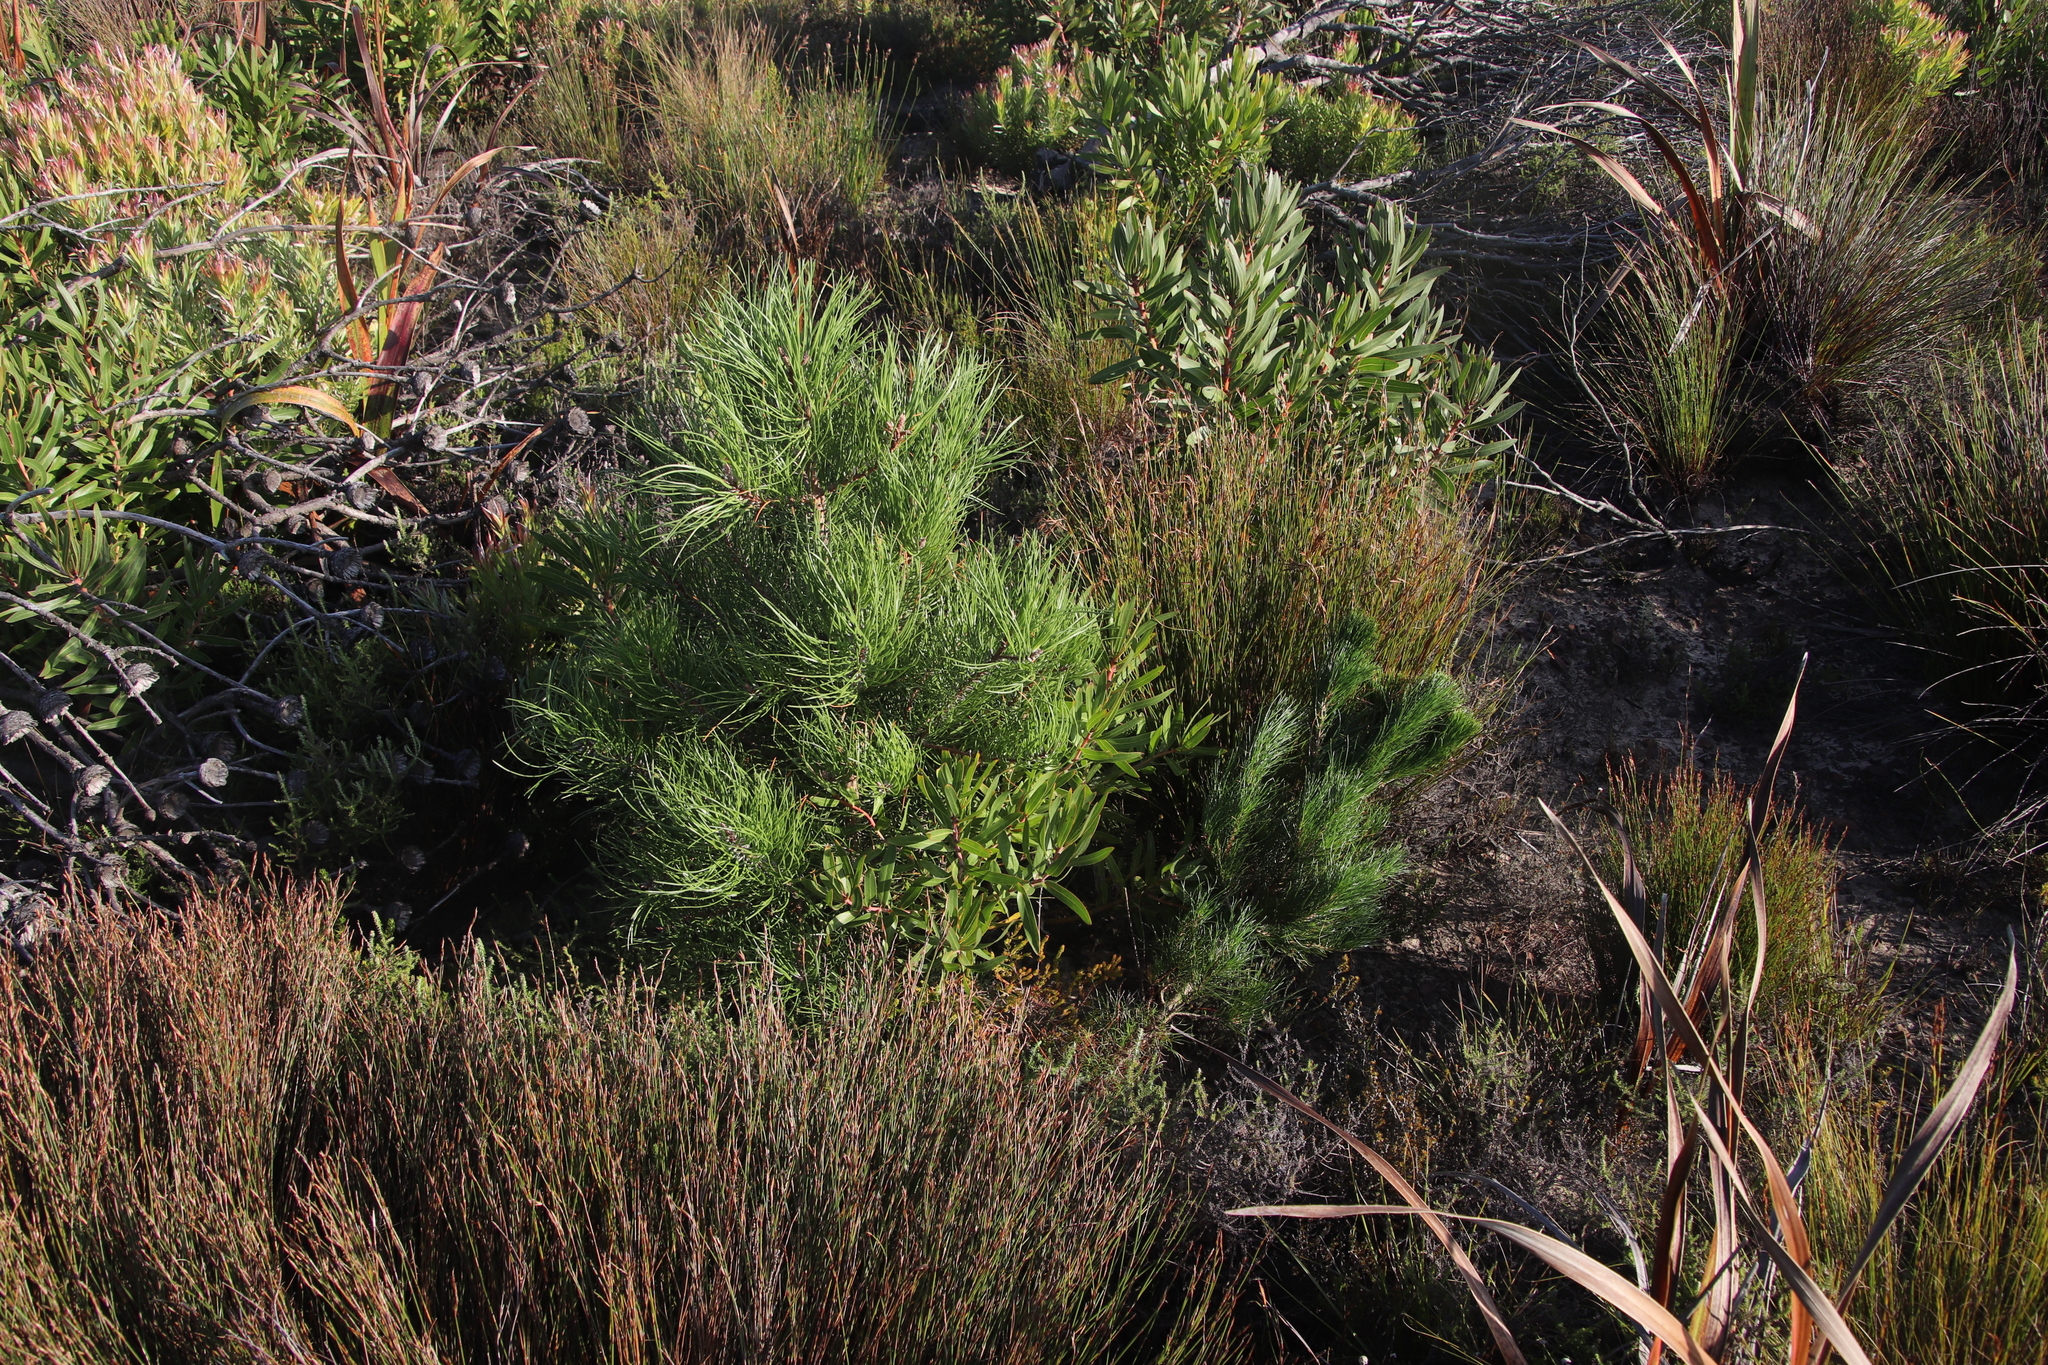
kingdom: Plantae
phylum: Tracheophyta
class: Pinopsida
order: Pinales
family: Pinaceae
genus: Pinus
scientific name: Pinus radiata
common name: Monterey pine
